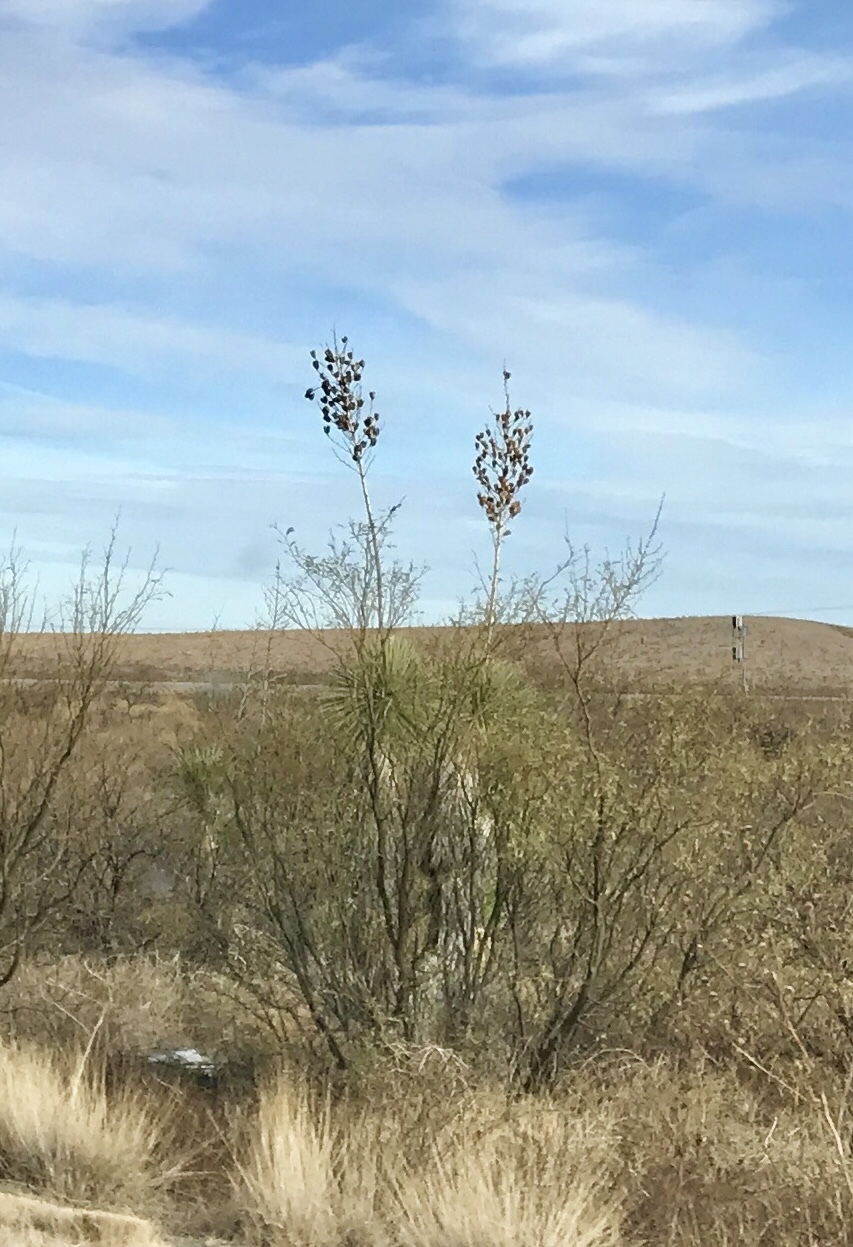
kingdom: Plantae
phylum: Tracheophyta
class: Liliopsida
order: Asparagales
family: Asparagaceae
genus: Yucca
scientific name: Yucca elata
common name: Palmella
